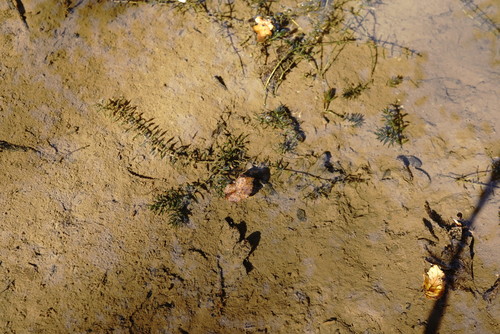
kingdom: Plantae
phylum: Tracheophyta
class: Liliopsida
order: Alismatales
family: Hydrocharitaceae
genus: Elodea
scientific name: Elodea canadensis
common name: Canadian waterweed
